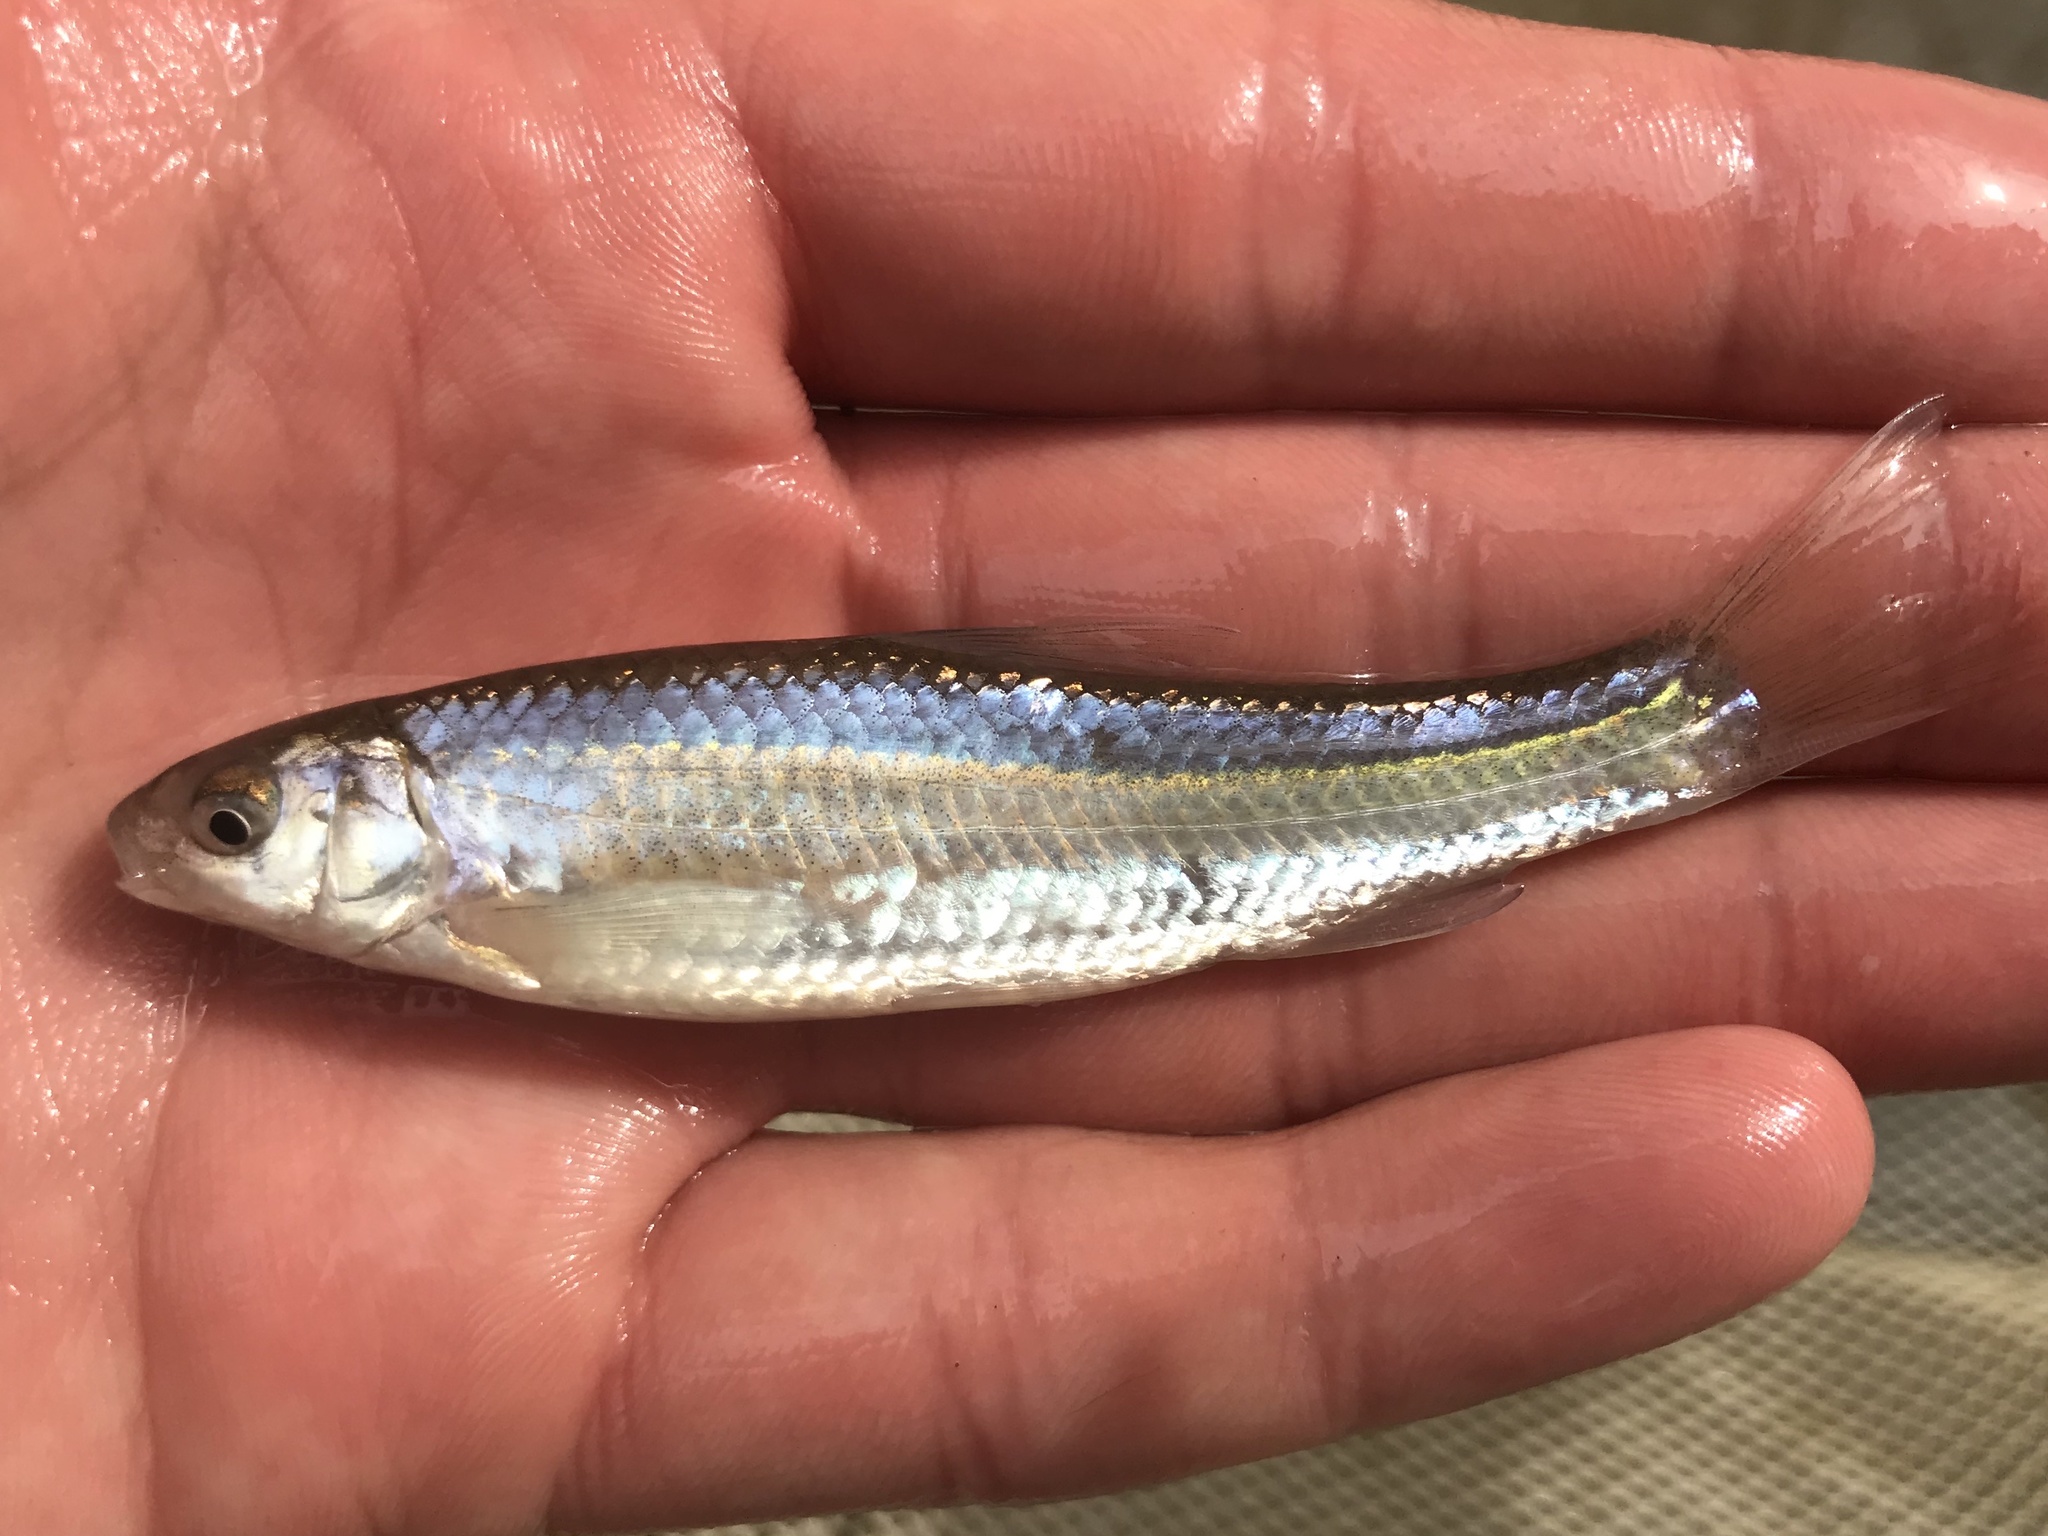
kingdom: Animalia
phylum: Chordata
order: Cypriniformes
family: Cyprinidae
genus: Hybognathus
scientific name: Hybognathus nuchalis
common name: Mississippi silvery minnow
